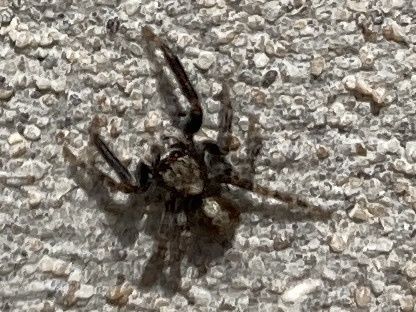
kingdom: Animalia
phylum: Arthropoda
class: Arachnida
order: Araneae
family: Salticidae
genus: Pseudeuophrys
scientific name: Pseudeuophrys lanigera
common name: Jumping spider
